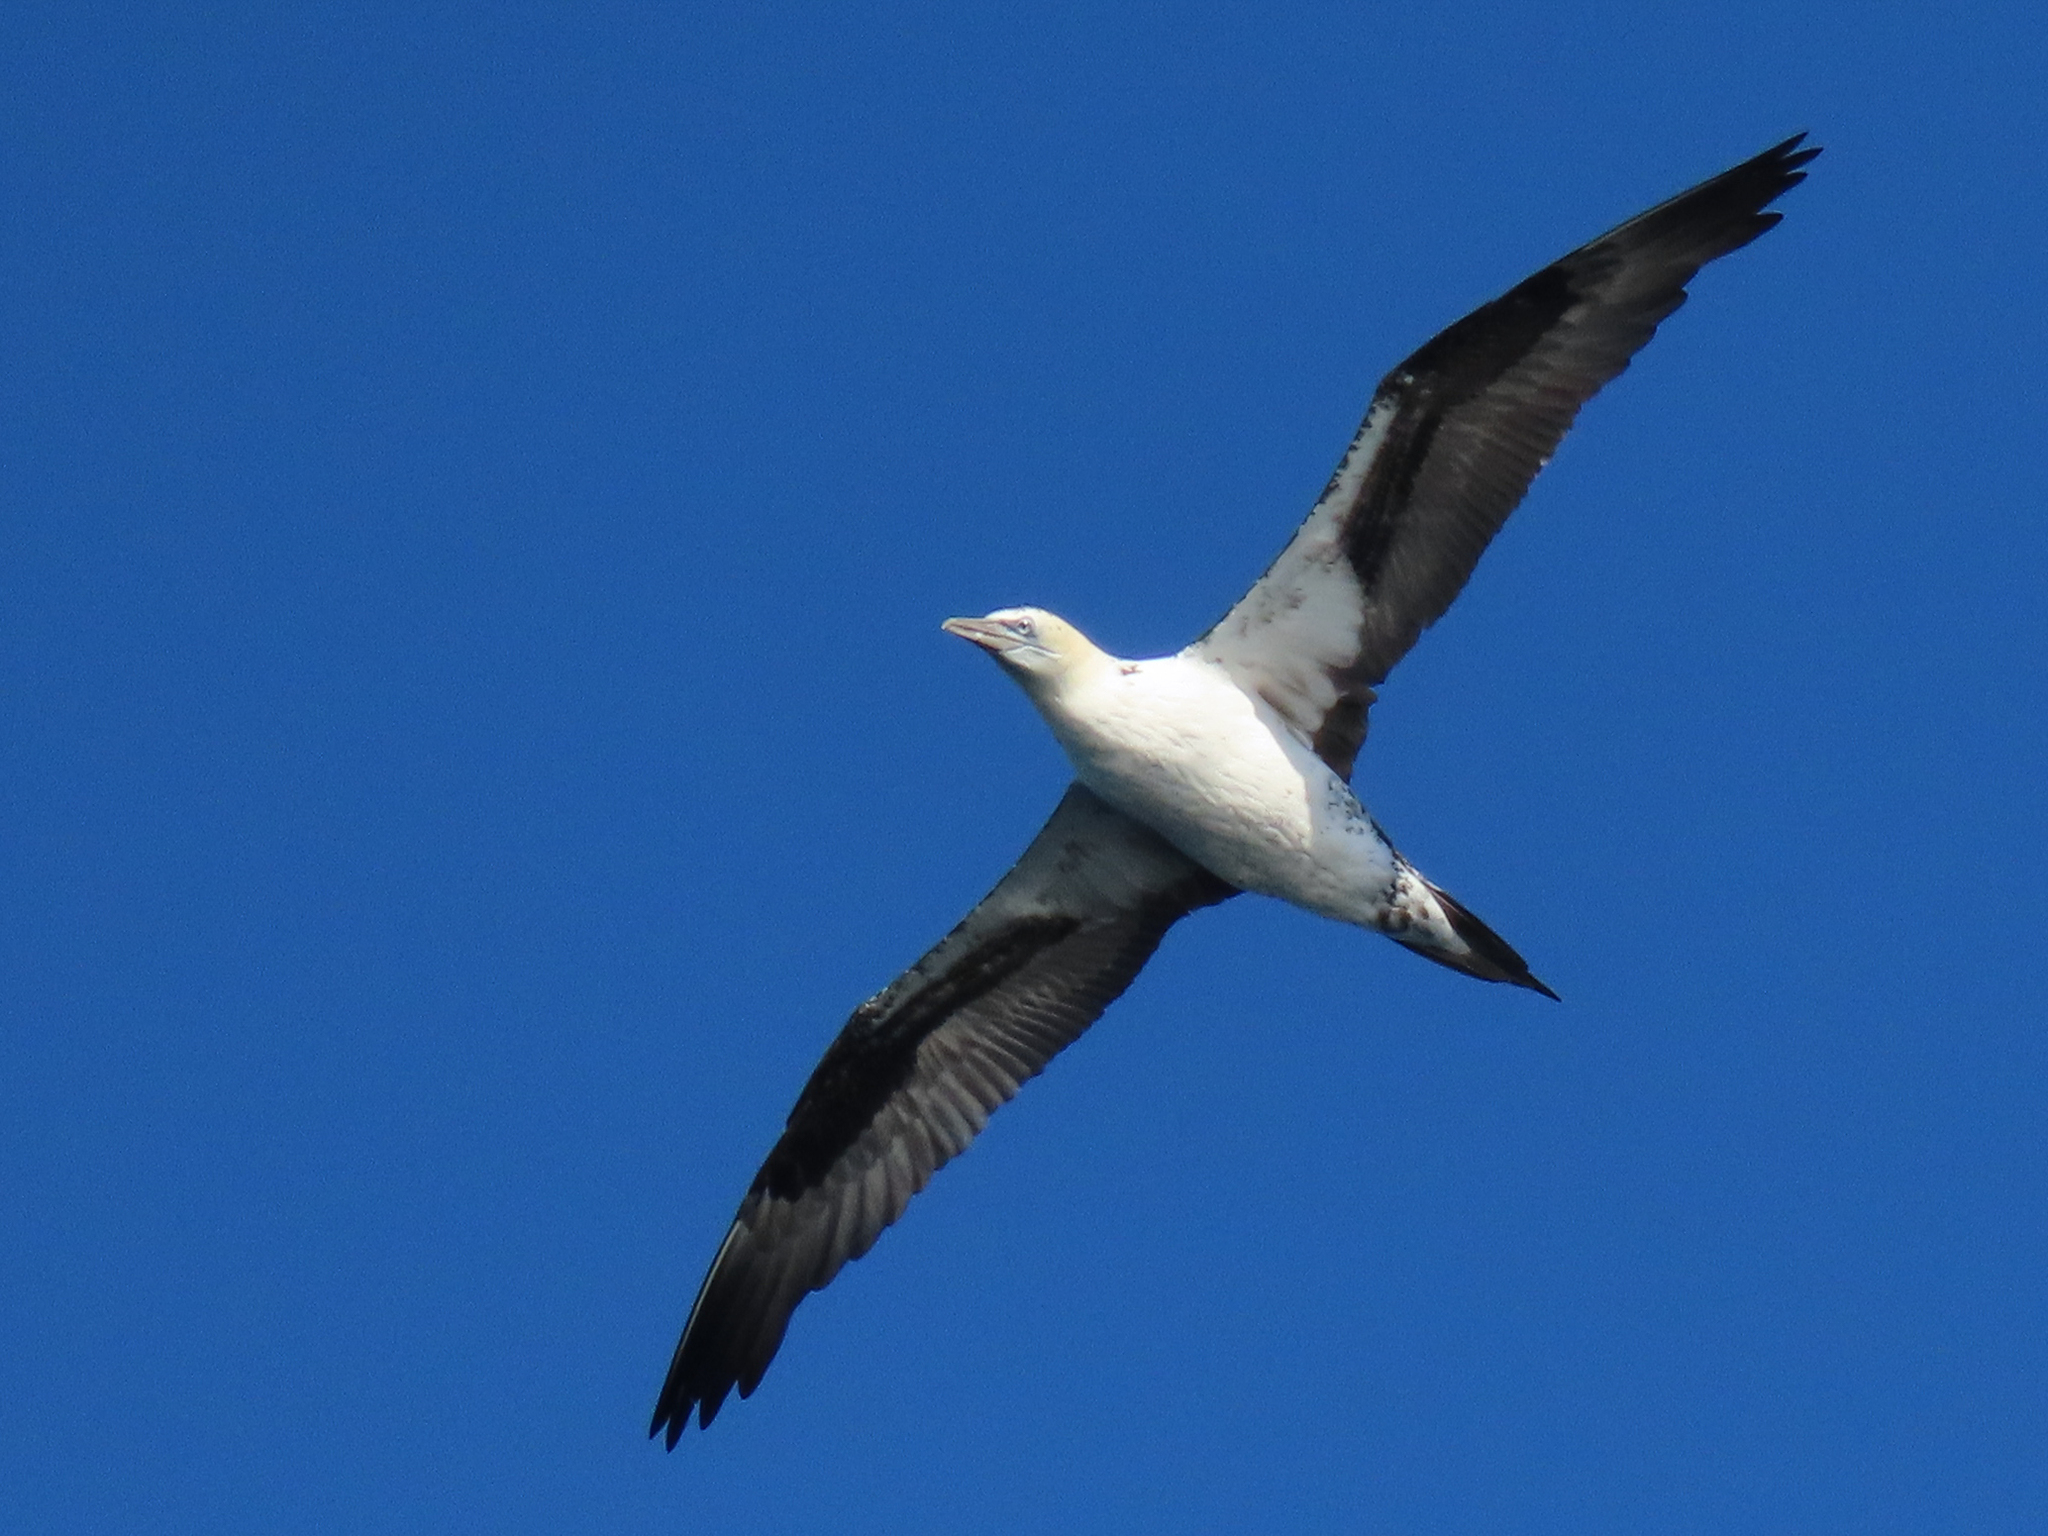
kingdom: Animalia
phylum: Chordata
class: Aves
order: Suliformes
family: Sulidae
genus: Morus
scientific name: Morus bassanus
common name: Northern gannet
